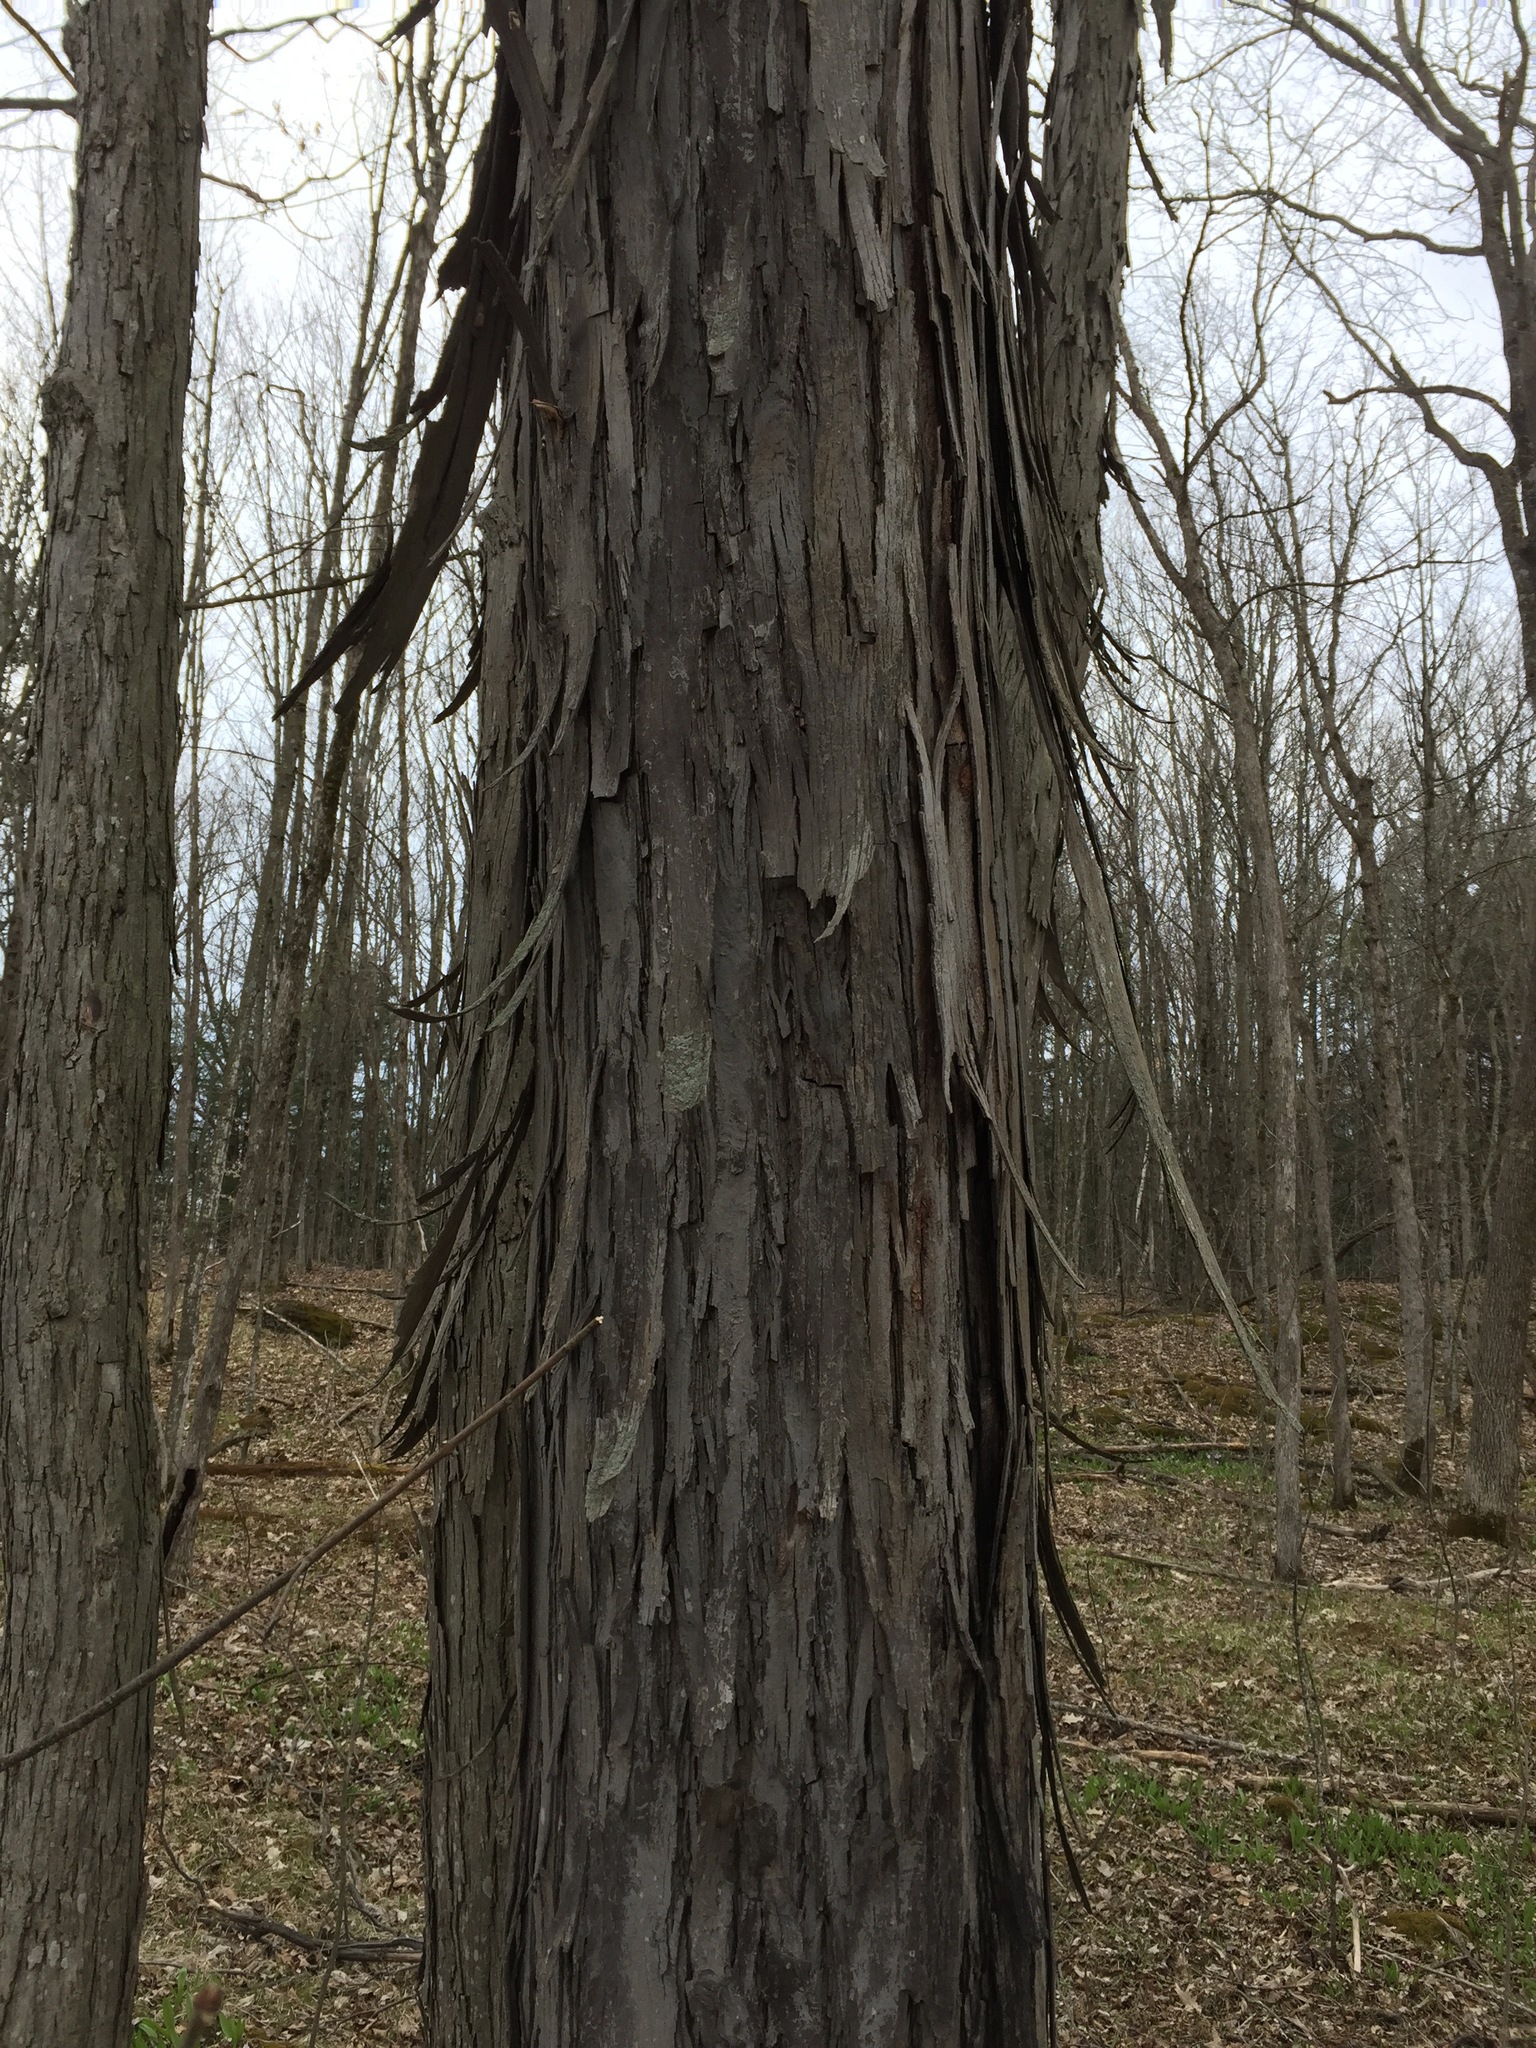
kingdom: Plantae
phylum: Tracheophyta
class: Magnoliopsida
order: Fagales
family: Juglandaceae
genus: Carya
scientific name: Carya ovata
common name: Shagbark hickory
